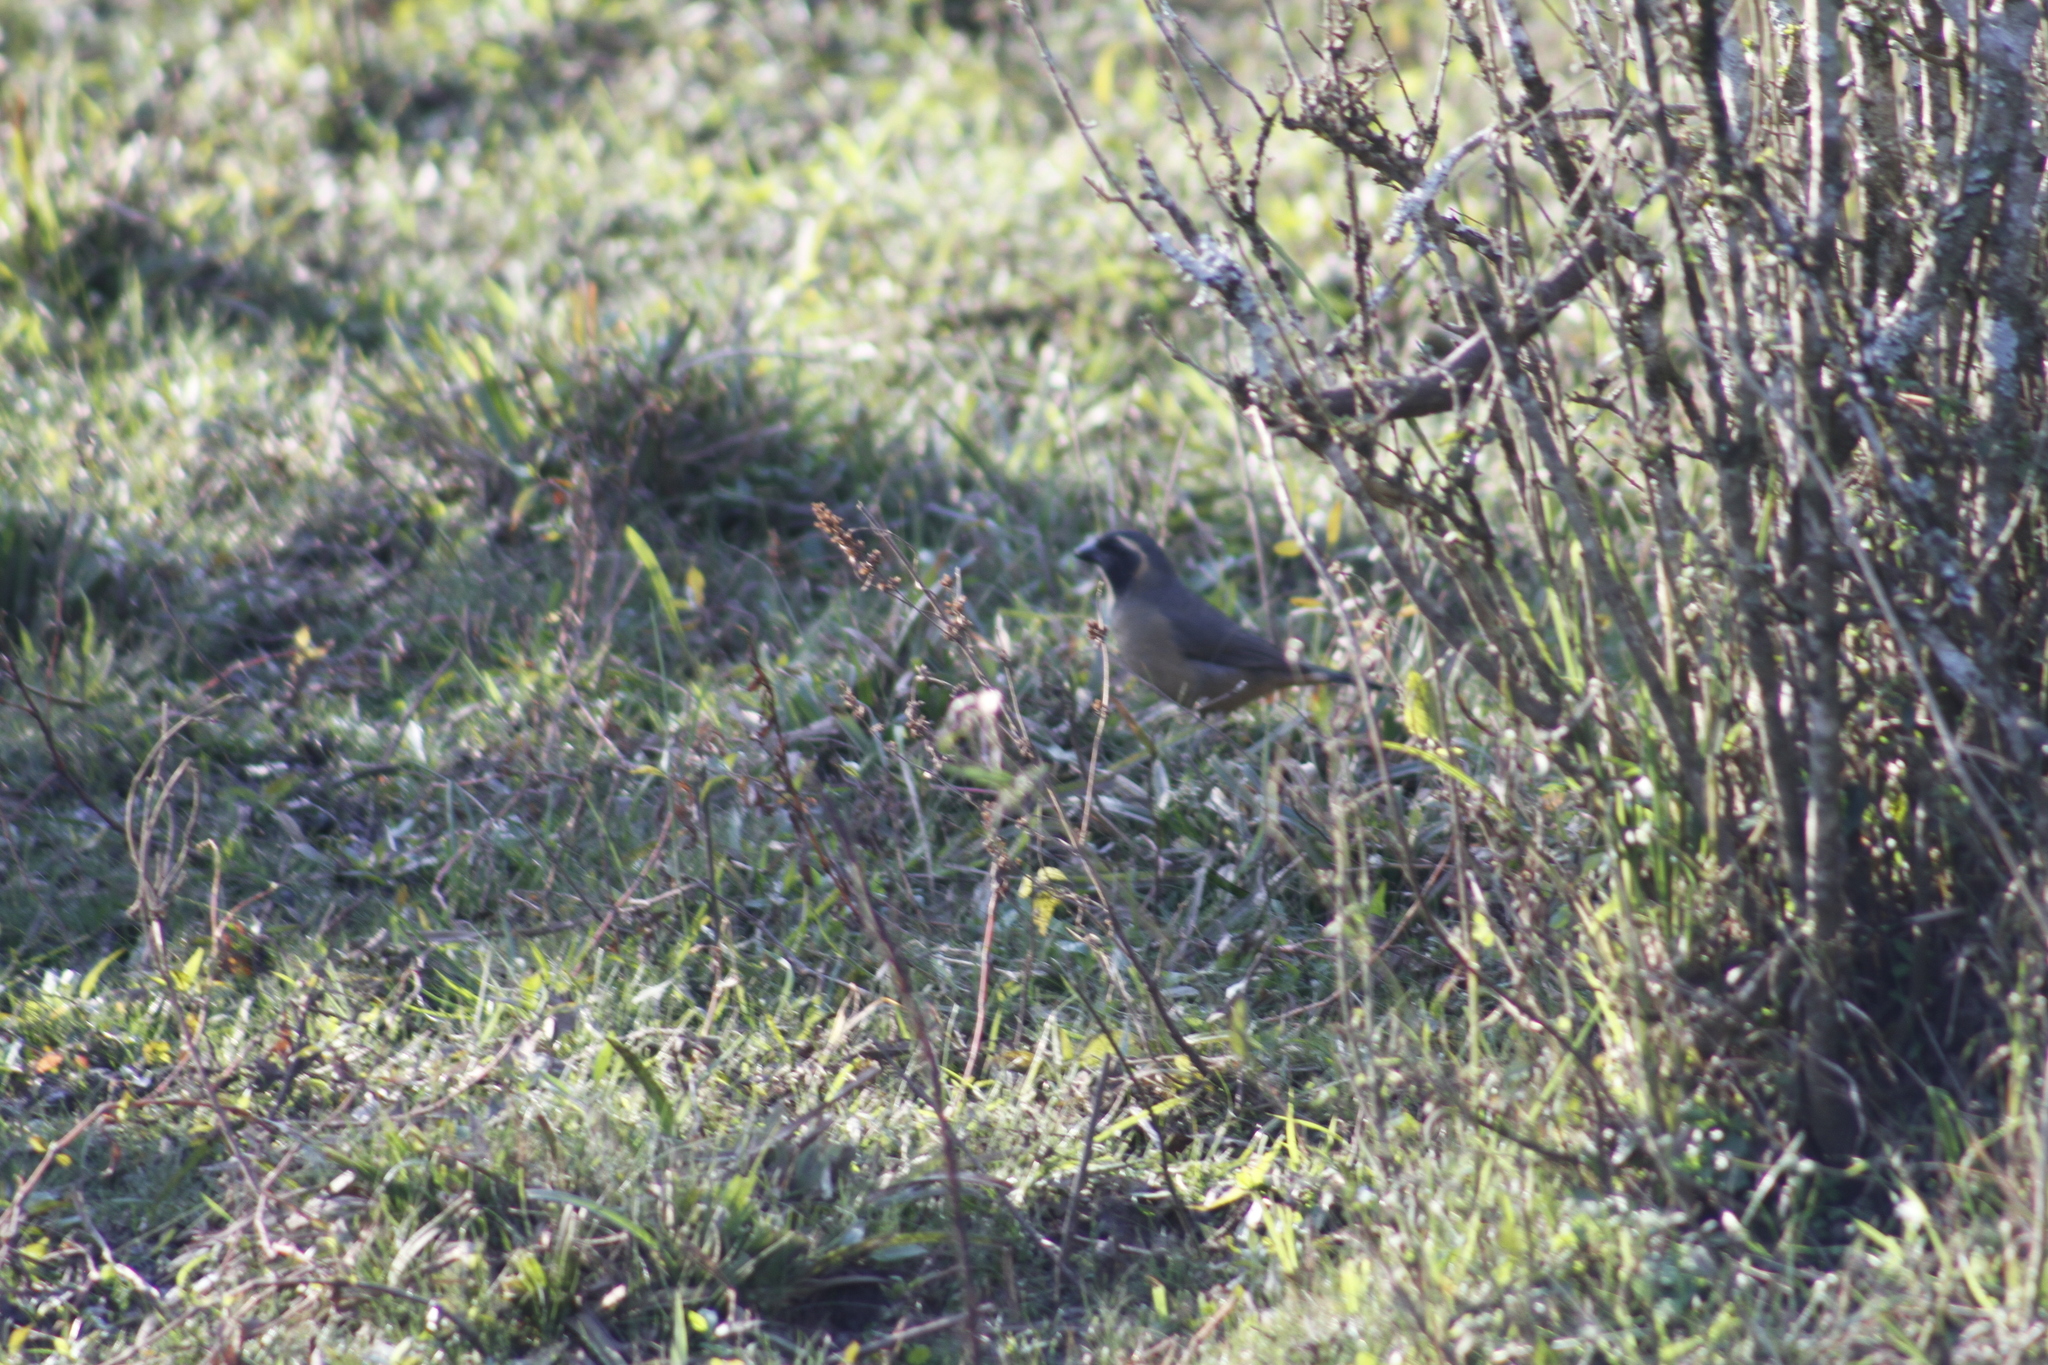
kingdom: Animalia
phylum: Chordata
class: Aves
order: Passeriformes
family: Thraupidae
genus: Saltator
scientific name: Saltator aurantiirostris
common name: Golden-billed saltator
